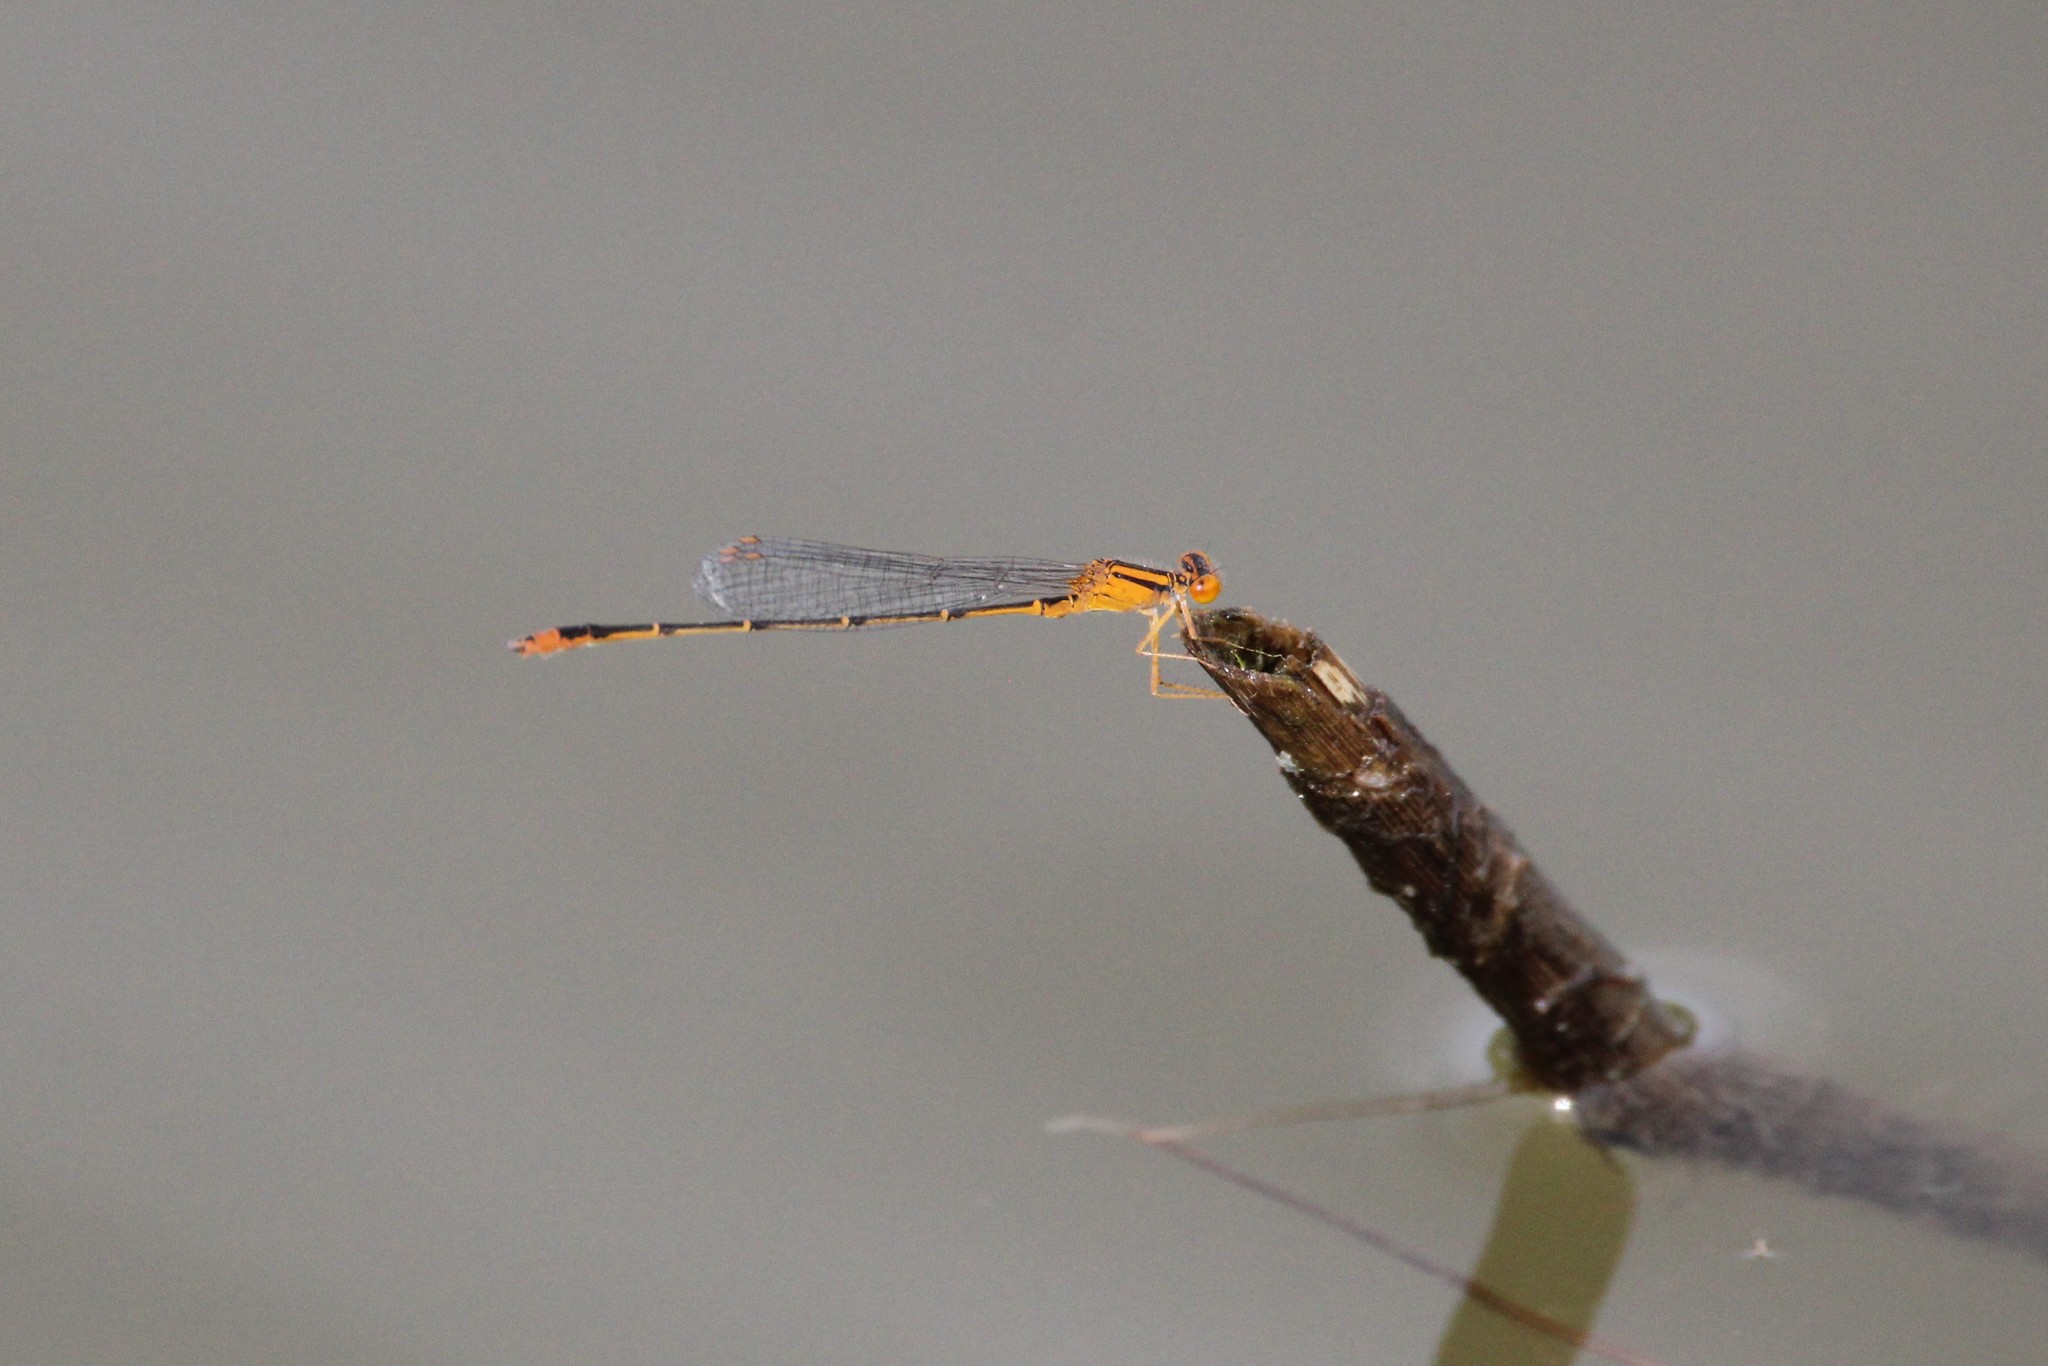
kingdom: Animalia
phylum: Arthropoda
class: Insecta
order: Odonata
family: Coenagrionidae
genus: Enallagma
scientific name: Enallagma signatum
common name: Orange bluet
